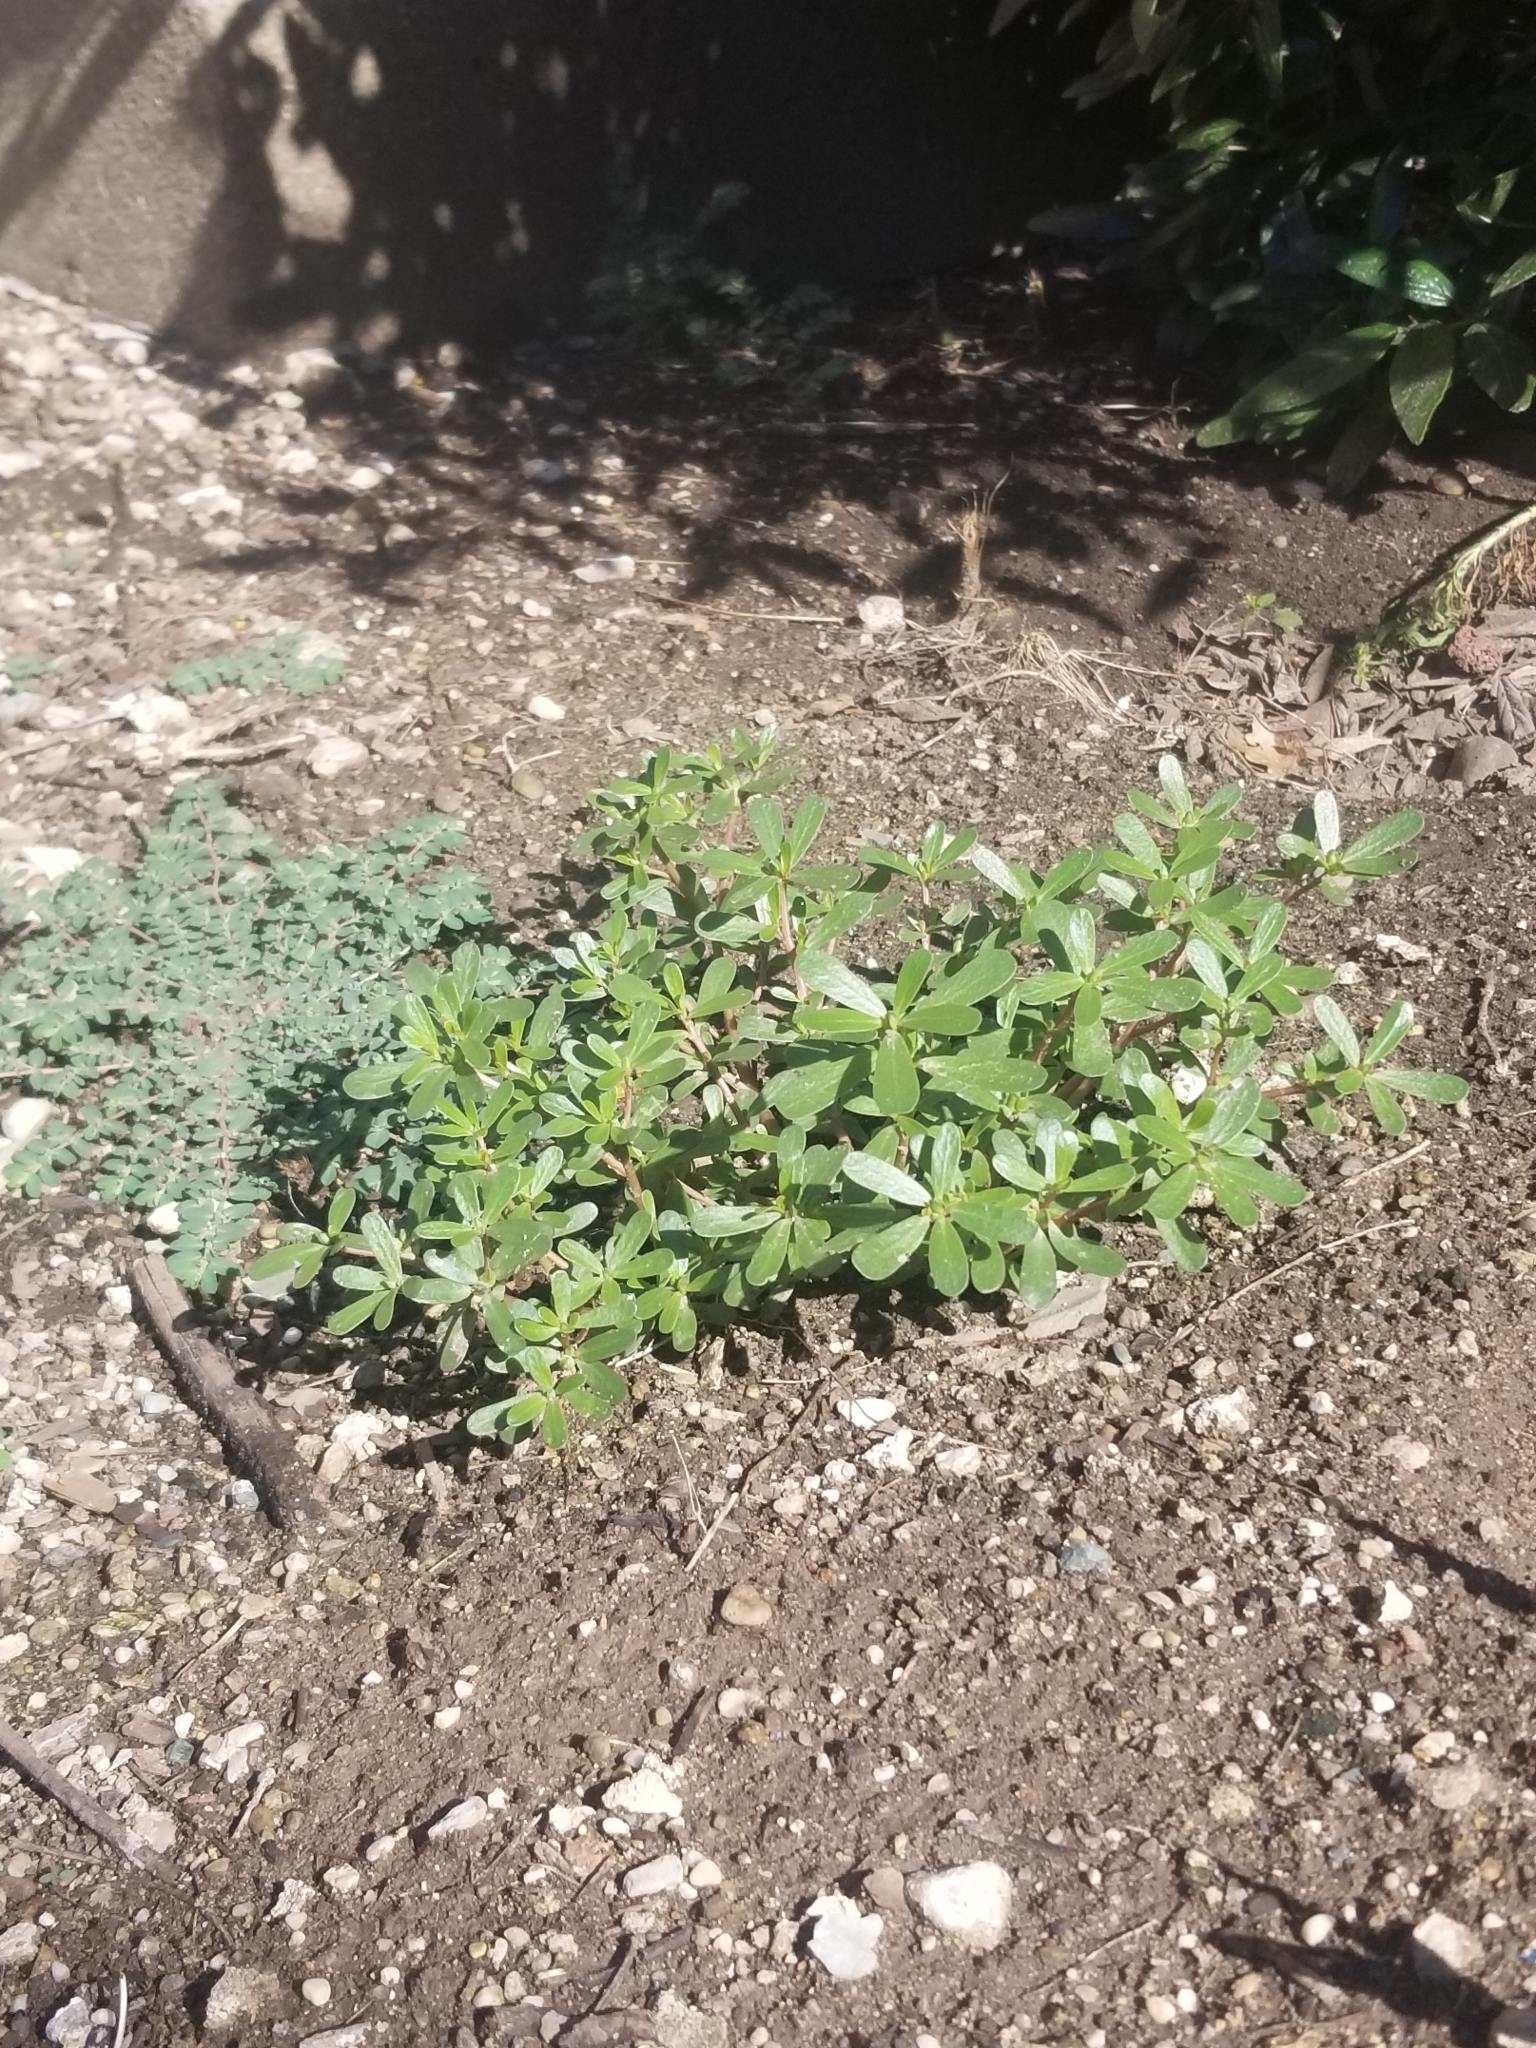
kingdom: Plantae
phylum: Tracheophyta
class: Magnoliopsida
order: Caryophyllales
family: Portulacaceae
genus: Portulaca
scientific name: Portulaca oleracea
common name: Common purslane
